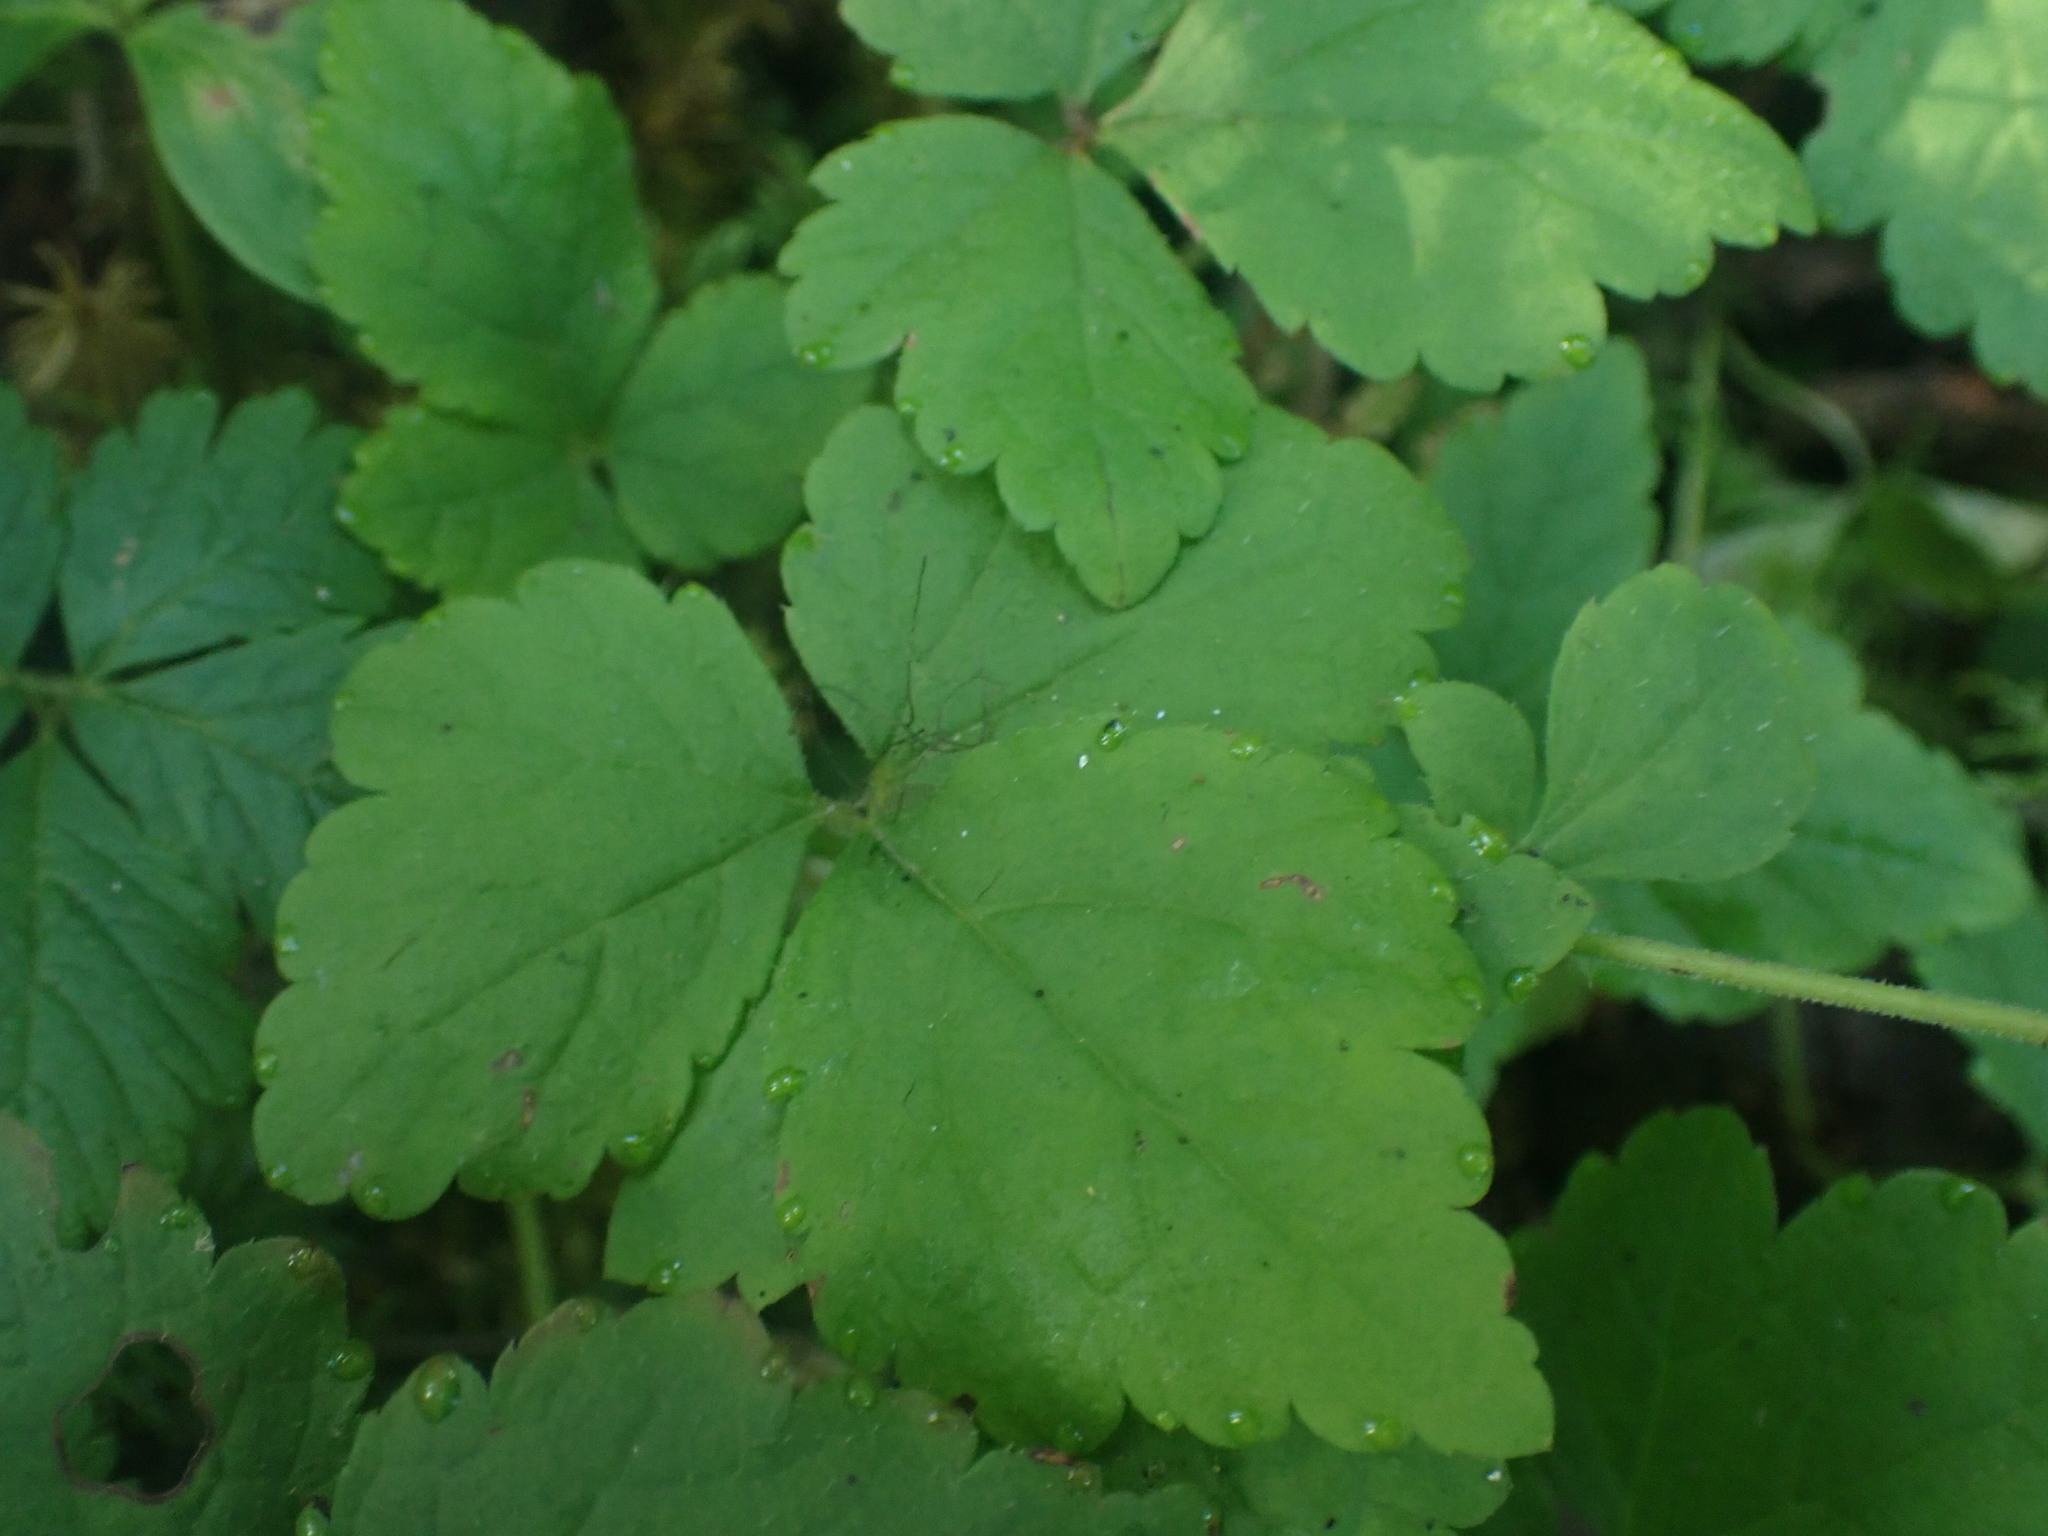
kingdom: Plantae
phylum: Tracheophyta
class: Magnoliopsida
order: Saxifragales
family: Saxifragaceae
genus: Tiarella
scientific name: Tiarella trifoliata
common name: Sugar-scoop
